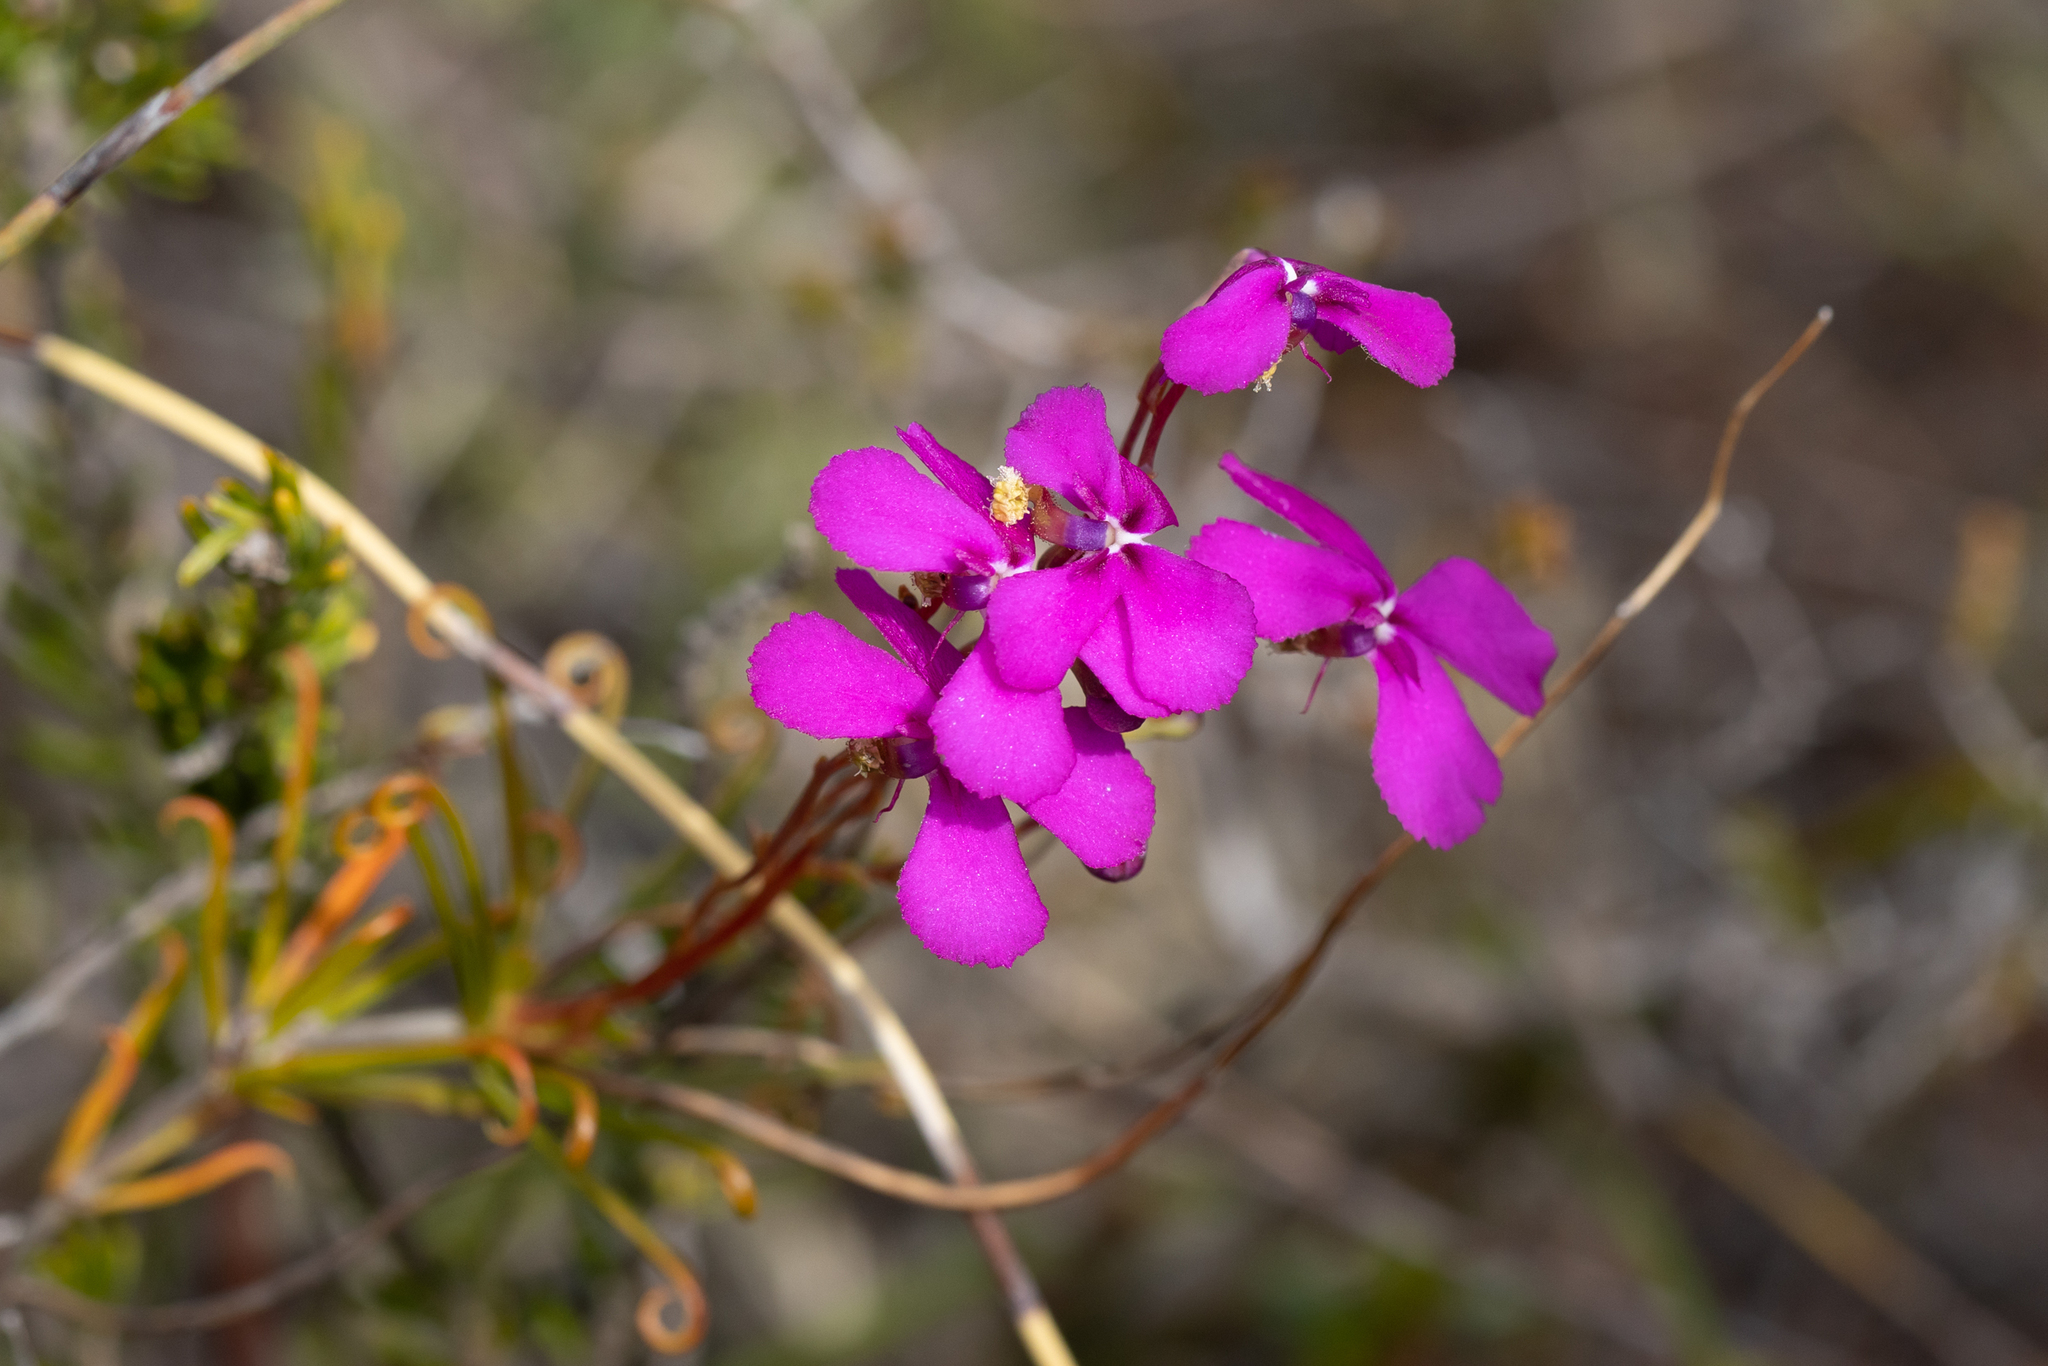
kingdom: Plantae
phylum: Tracheophyta
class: Magnoliopsida
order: Asterales
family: Stylidiaceae
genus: Stylidium
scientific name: Stylidium scandens
